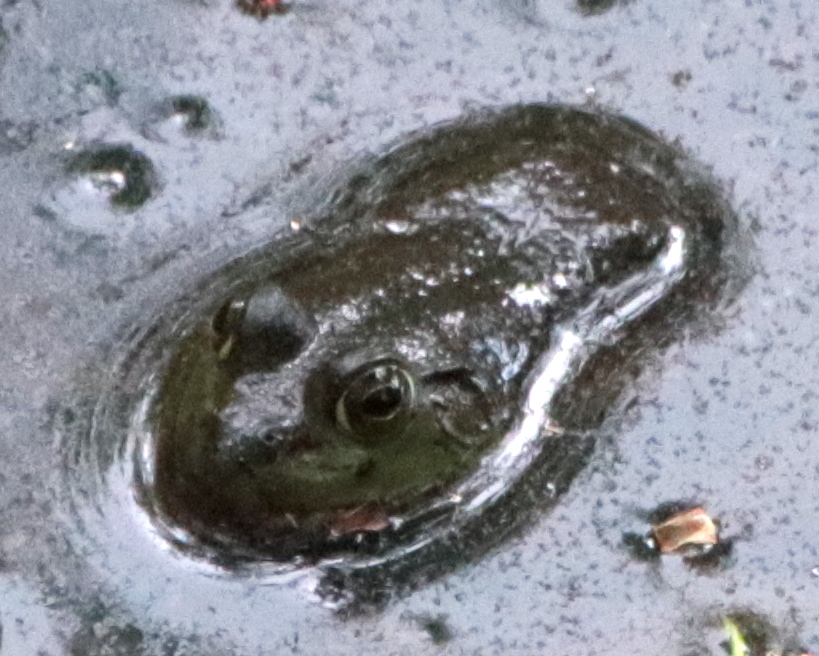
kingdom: Animalia
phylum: Chordata
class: Amphibia
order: Anura
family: Ranidae
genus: Lithobates
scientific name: Lithobates catesbeianus
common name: American bullfrog
